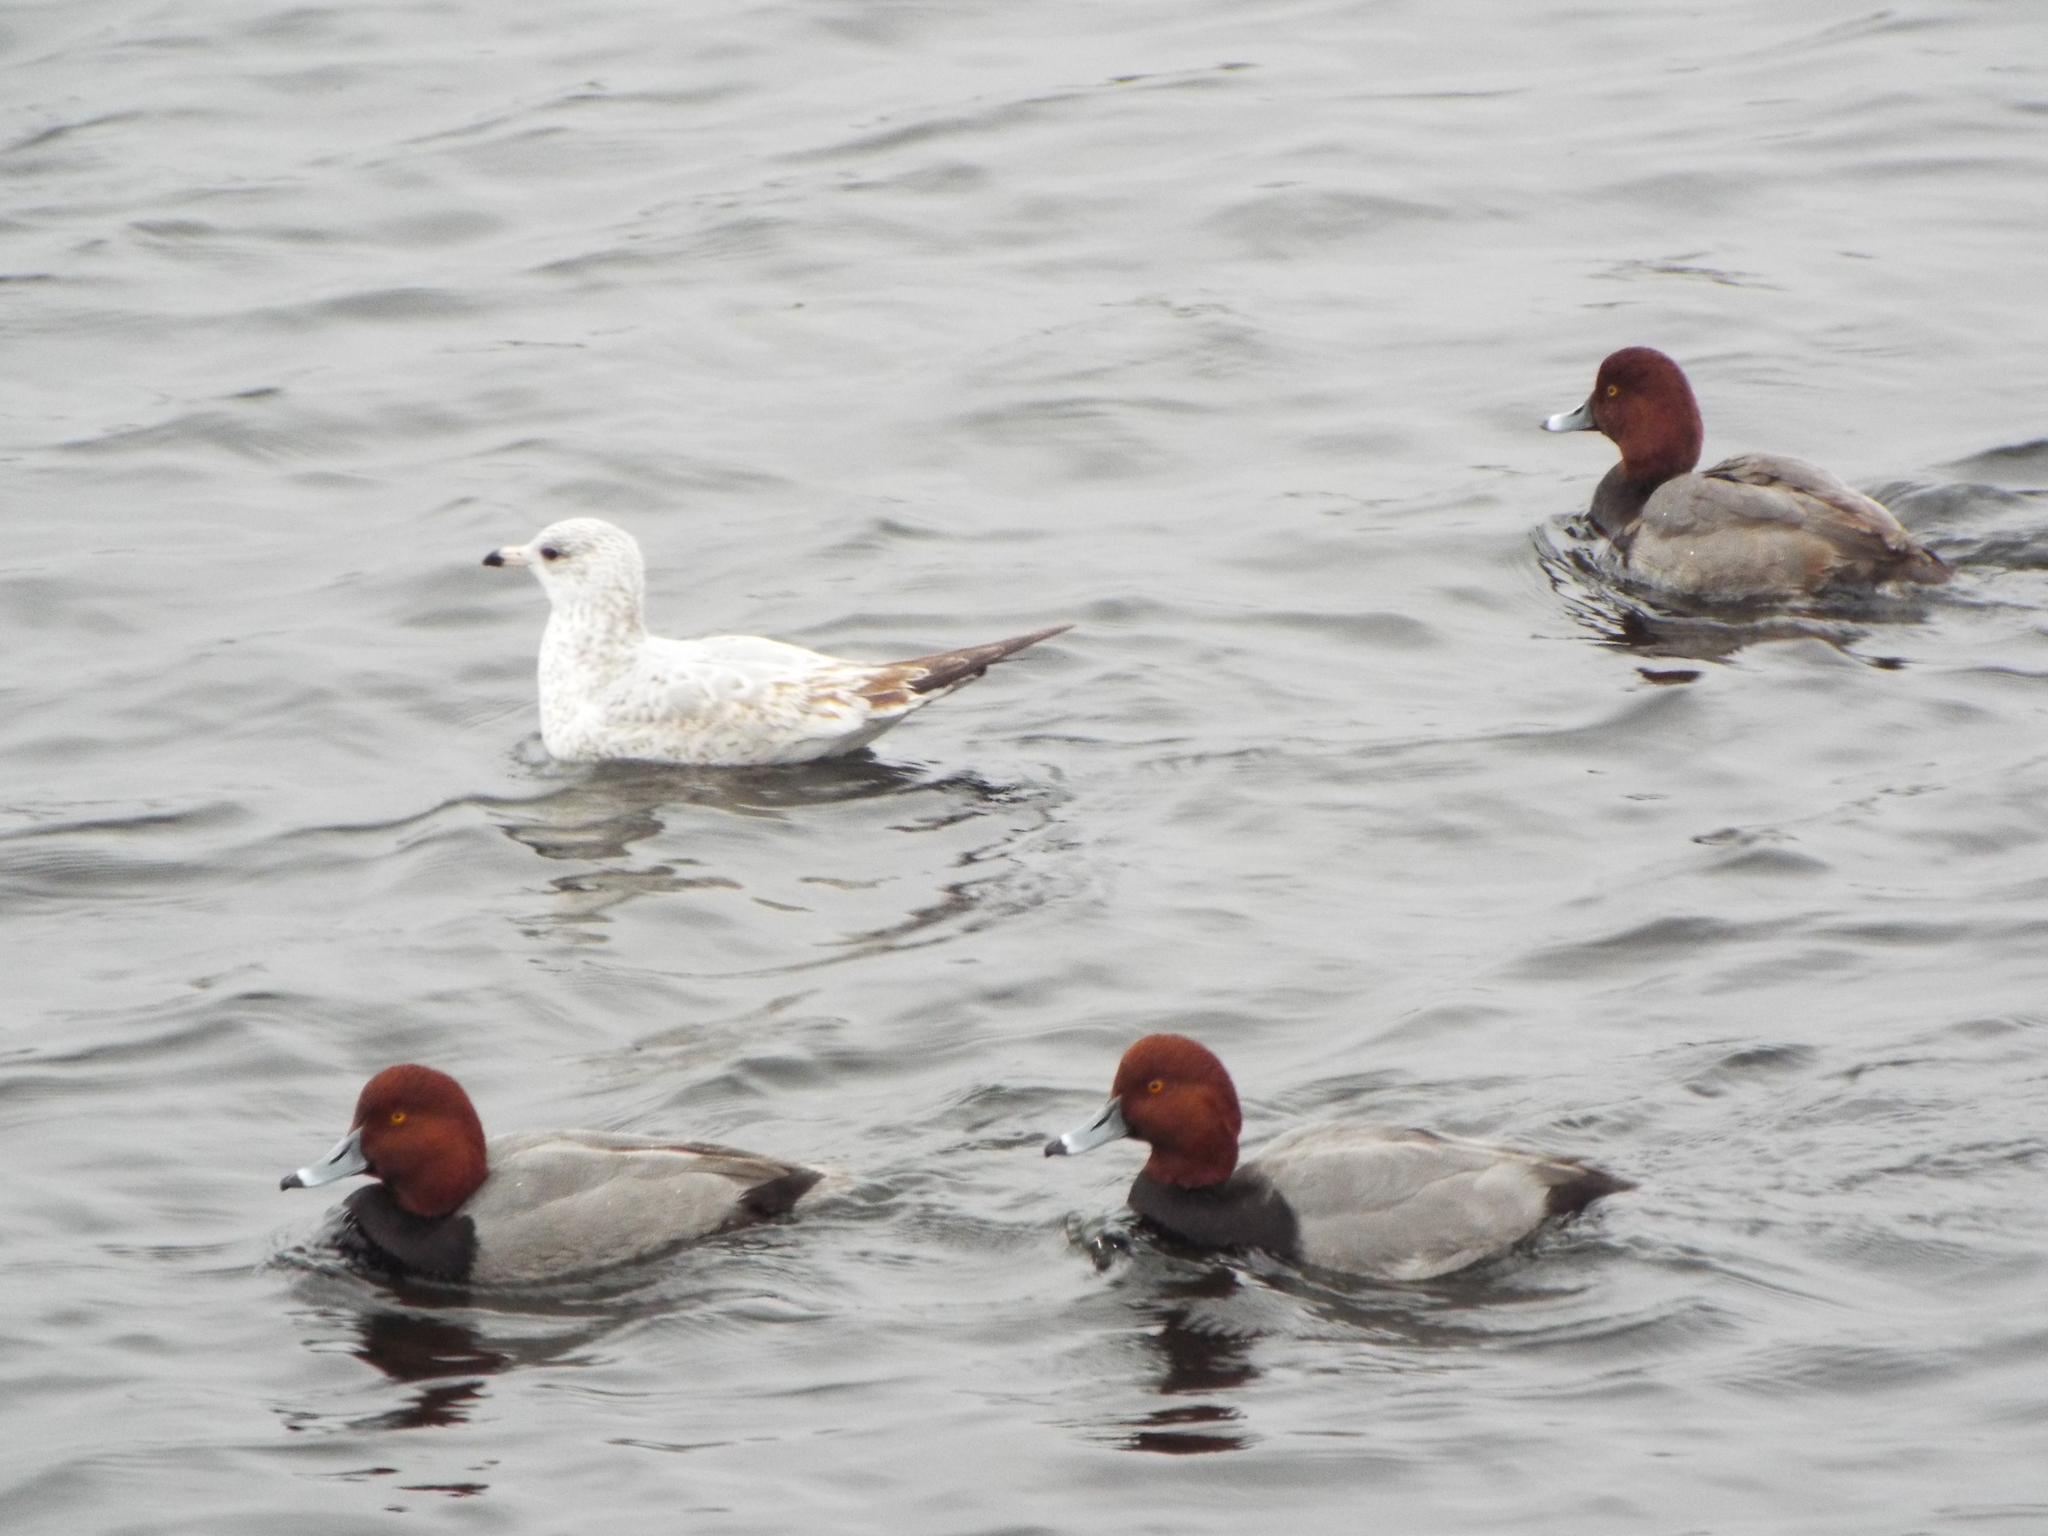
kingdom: Animalia
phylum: Chordata
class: Aves
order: Anseriformes
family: Anatidae
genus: Aythya
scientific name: Aythya americana
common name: Redhead
